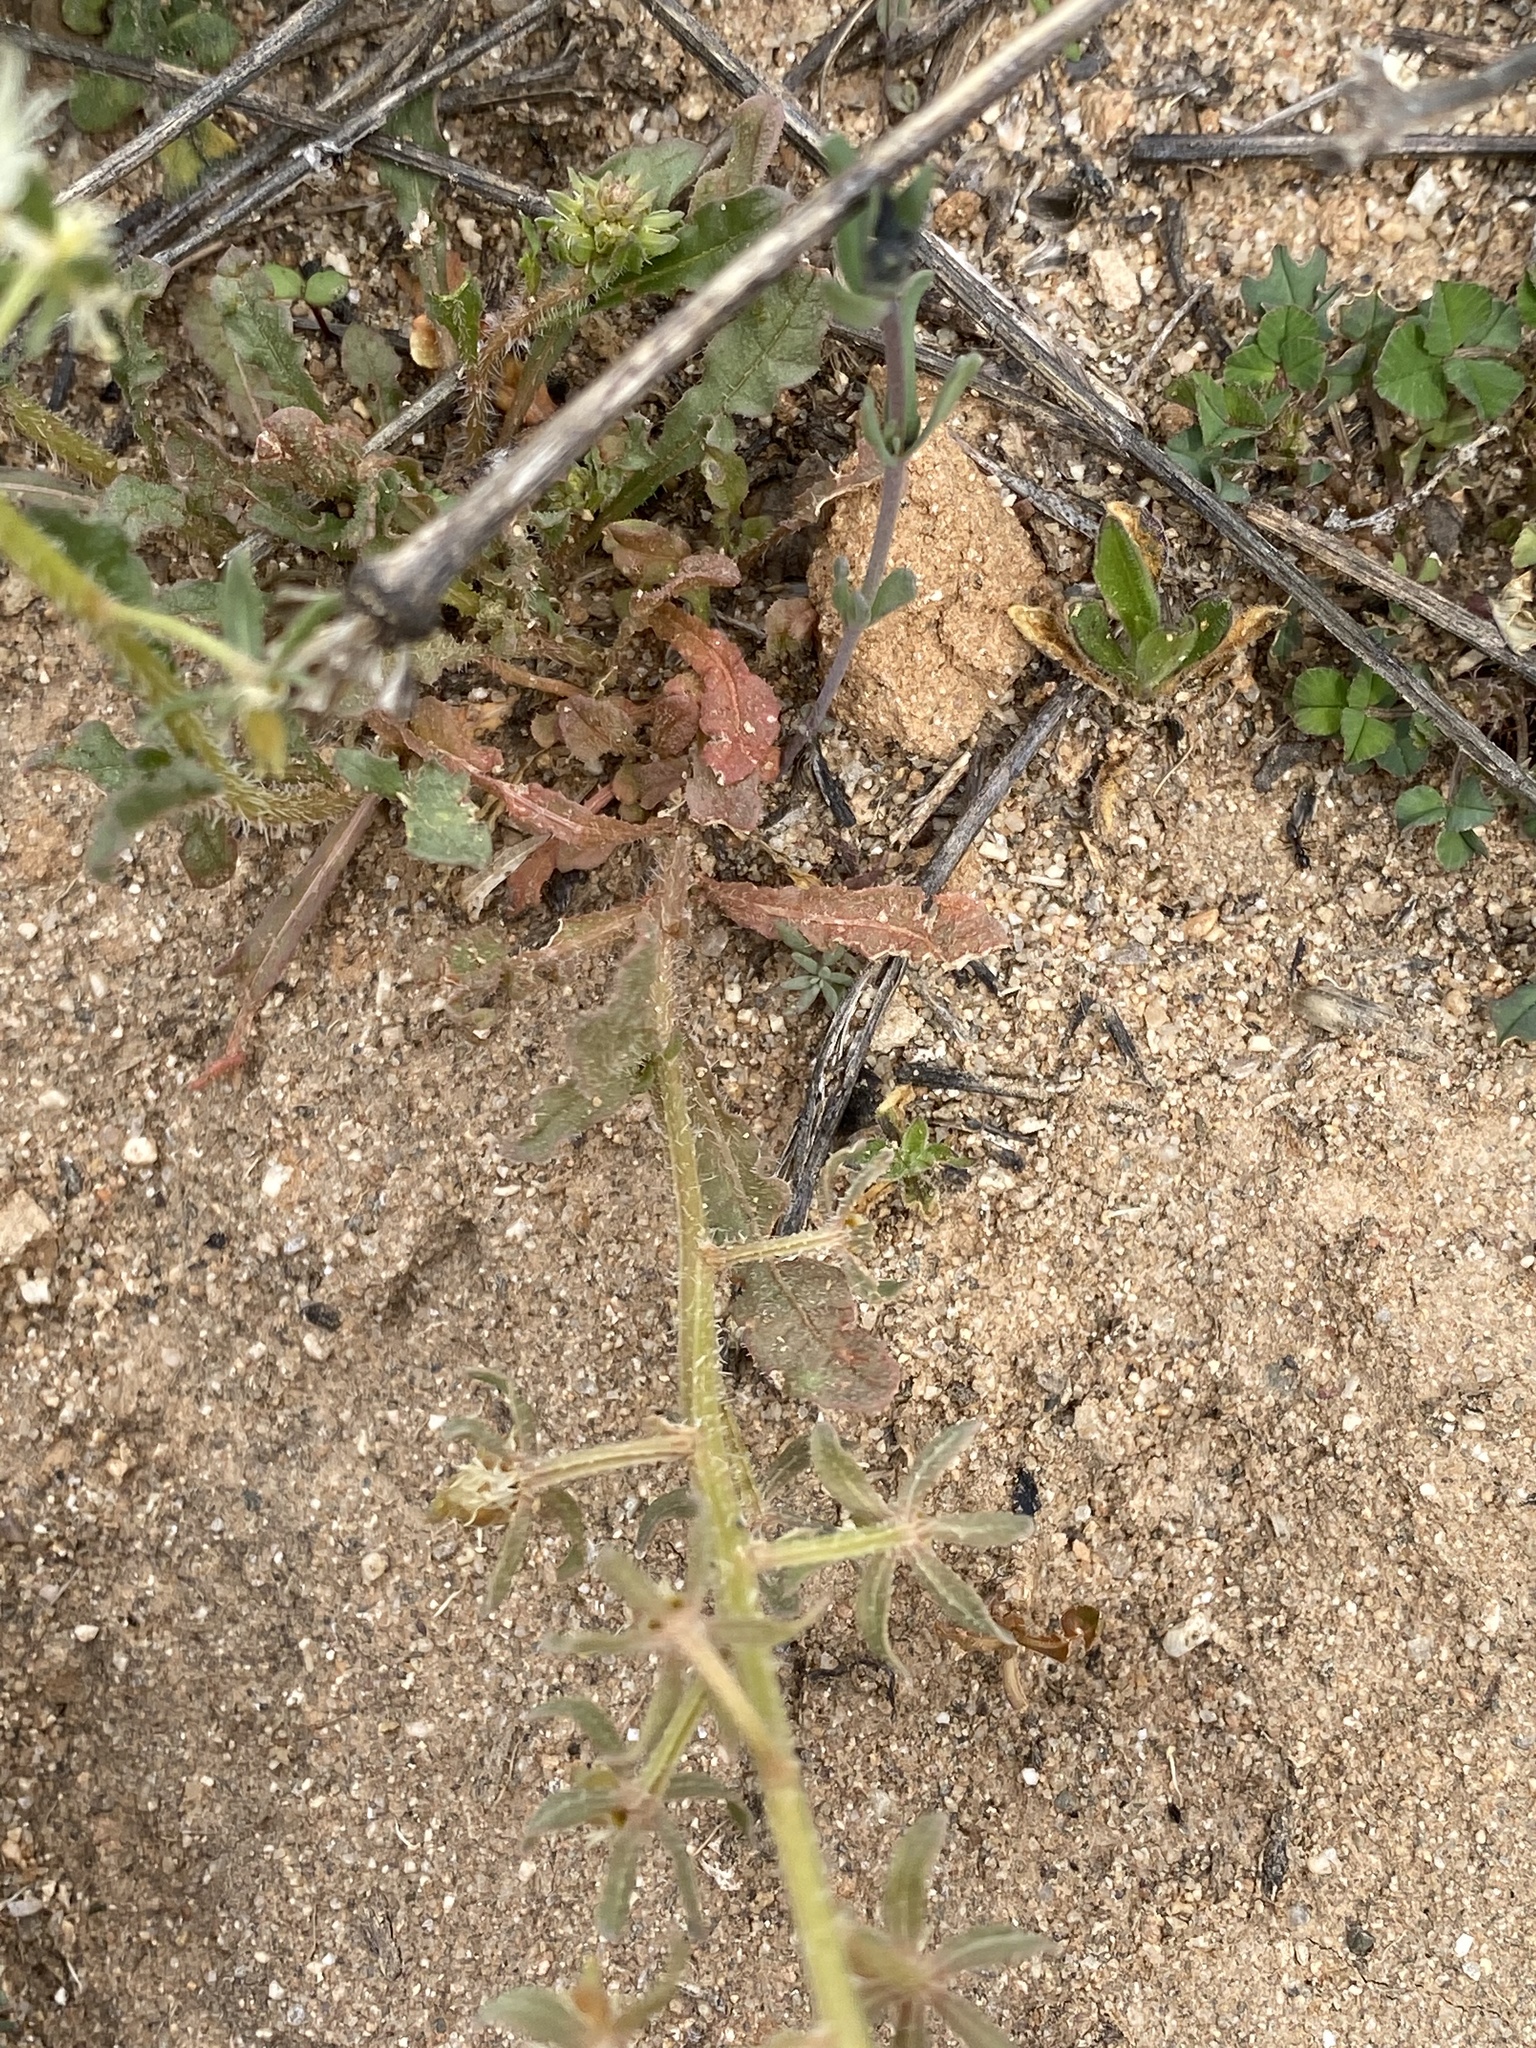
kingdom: Plantae
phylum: Tracheophyta
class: Magnoliopsida
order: Brassicales
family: Resedaceae
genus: Reseda
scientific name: Reseda phyteuma
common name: Corn mignonette
